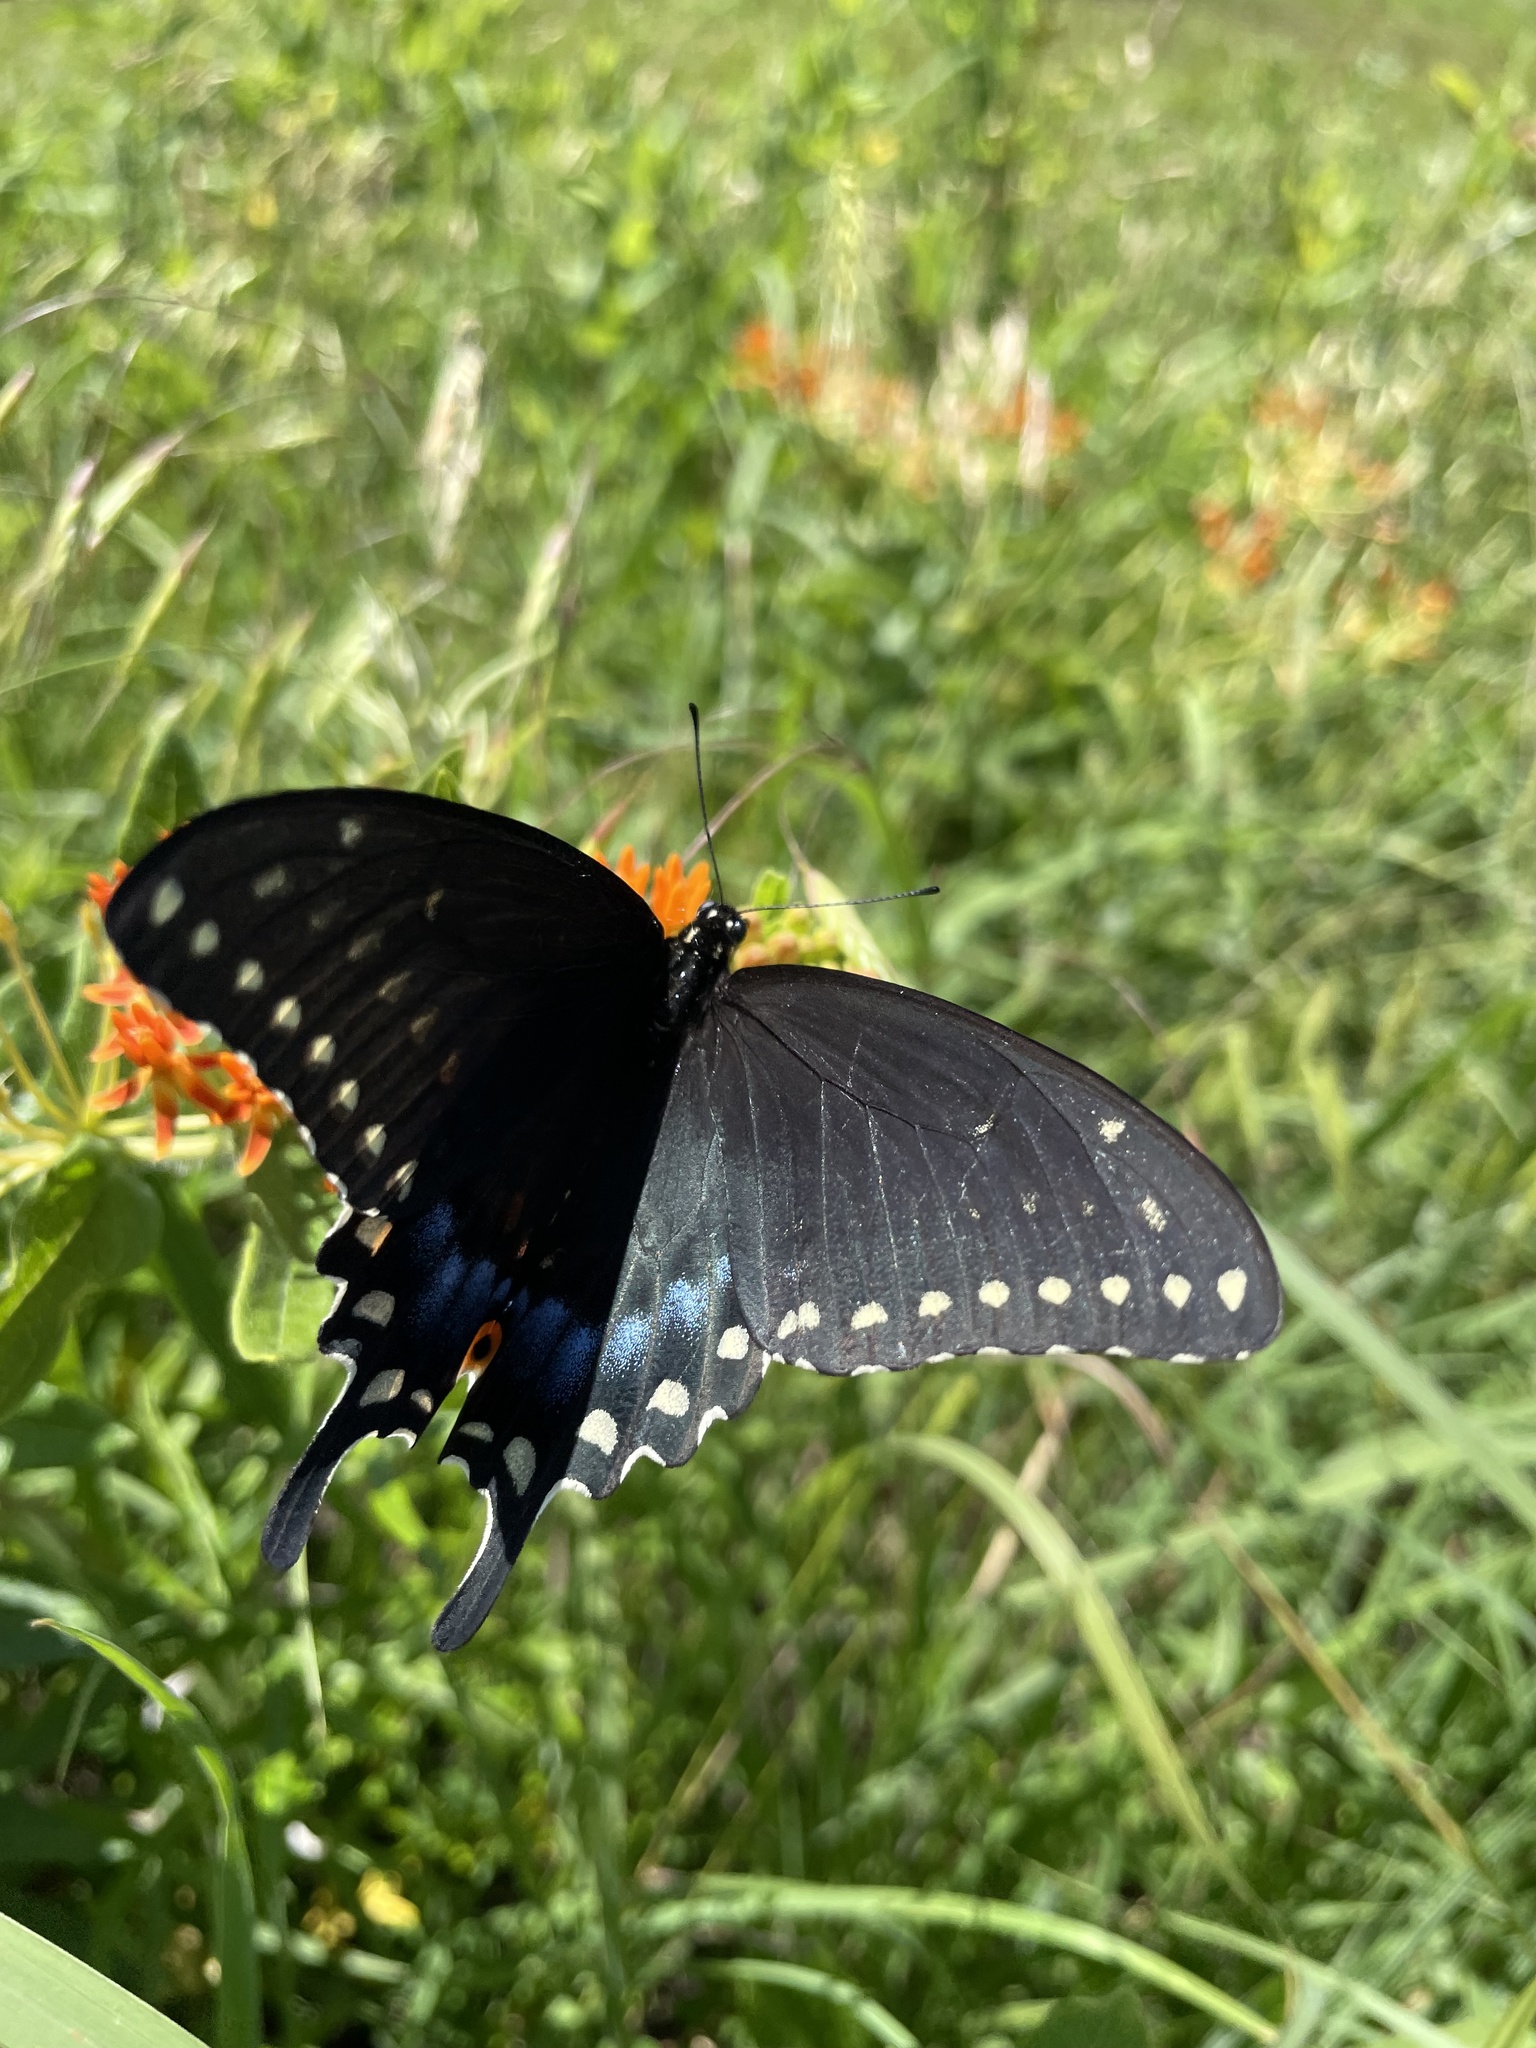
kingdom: Animalia
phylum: Arthropoda
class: Insecta
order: Lepidoptera
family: Papilionidae
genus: Papilio
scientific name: Papilio polyxenes
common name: Black swallowtail
